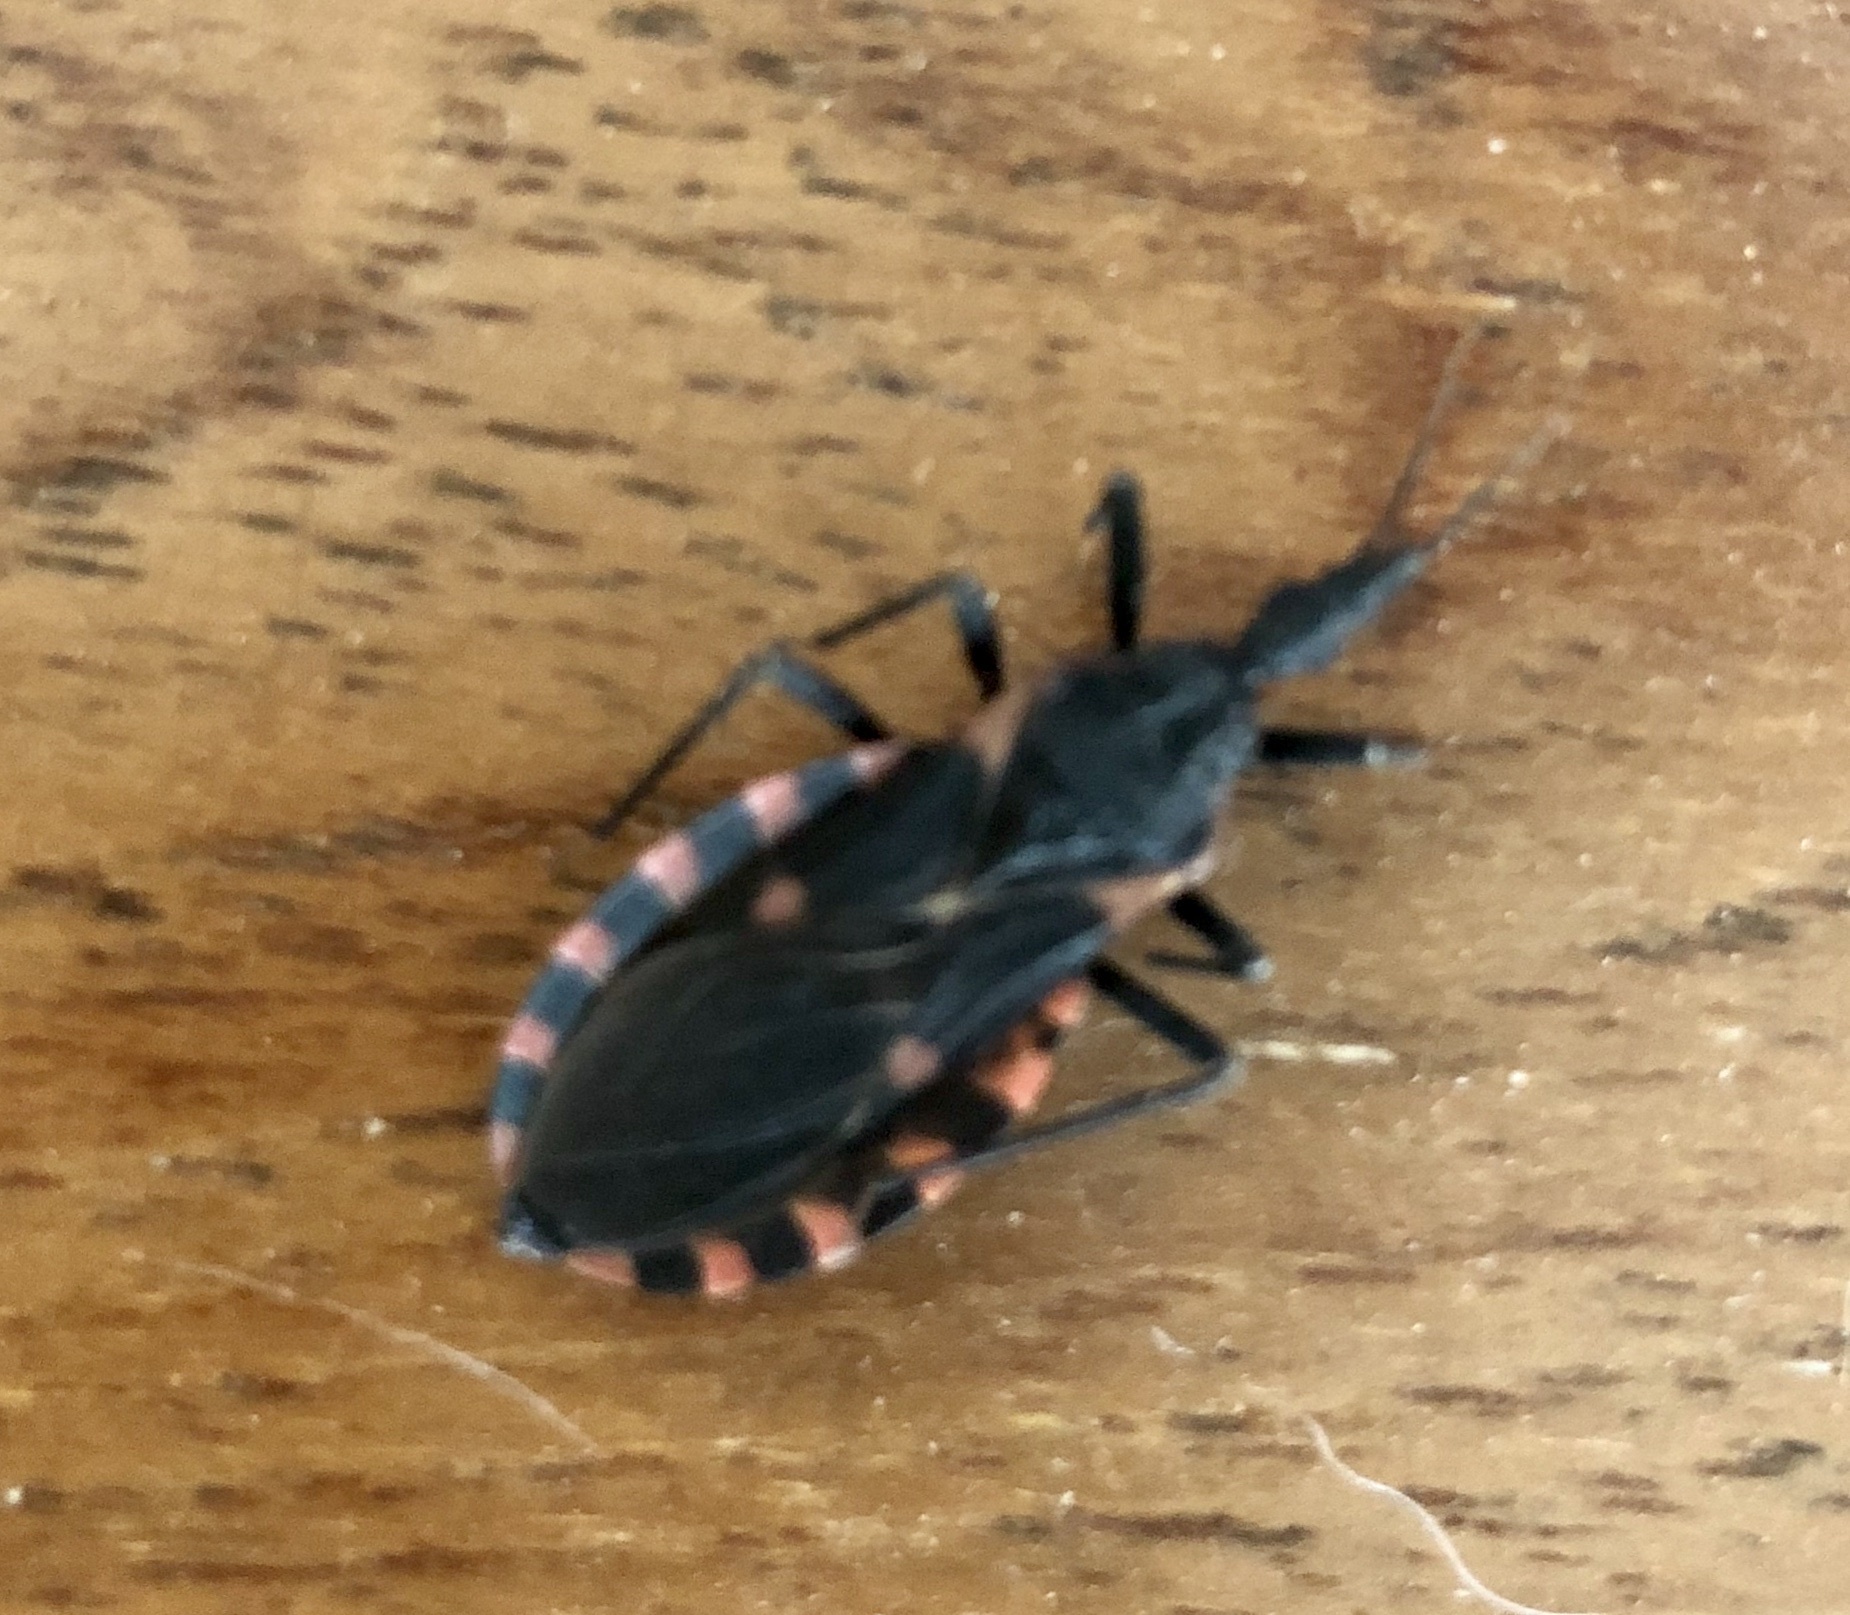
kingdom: Animalia
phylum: Arthropoda
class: Insecta
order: Hemiptera
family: Reduviidae
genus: Triatoma
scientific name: Triatoma sanguisuga
